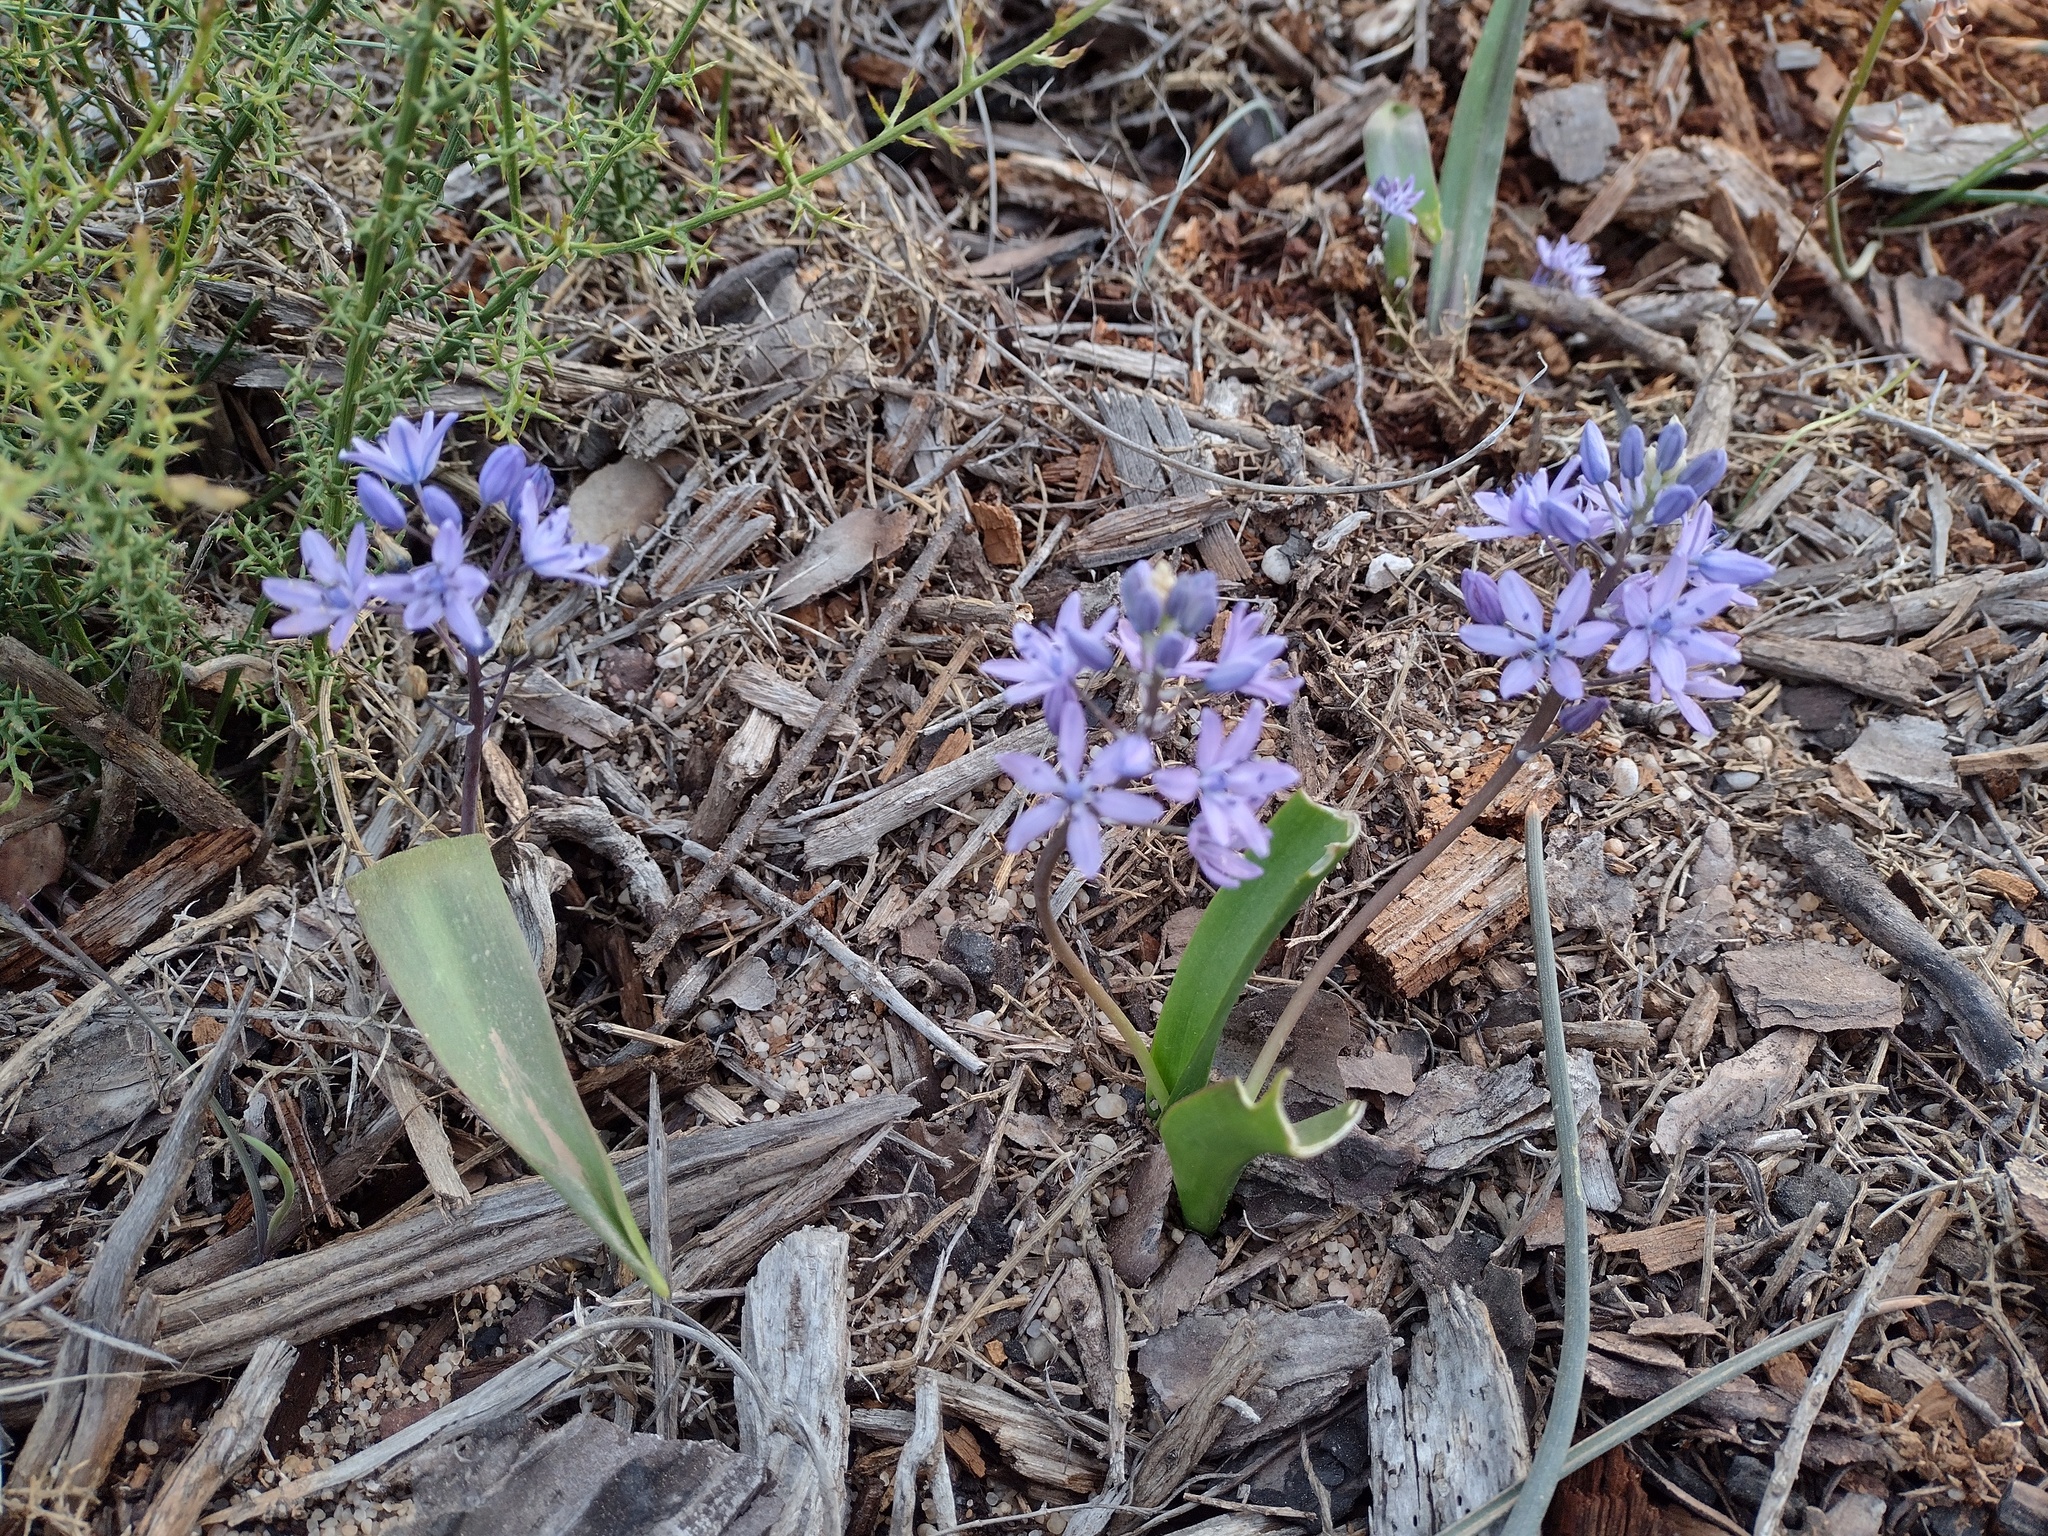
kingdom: Plantae
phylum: Tracheophyta
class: Liliopsida
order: Asparagales
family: Asparagaceae
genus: Scilla
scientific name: Scilla monophyllos
